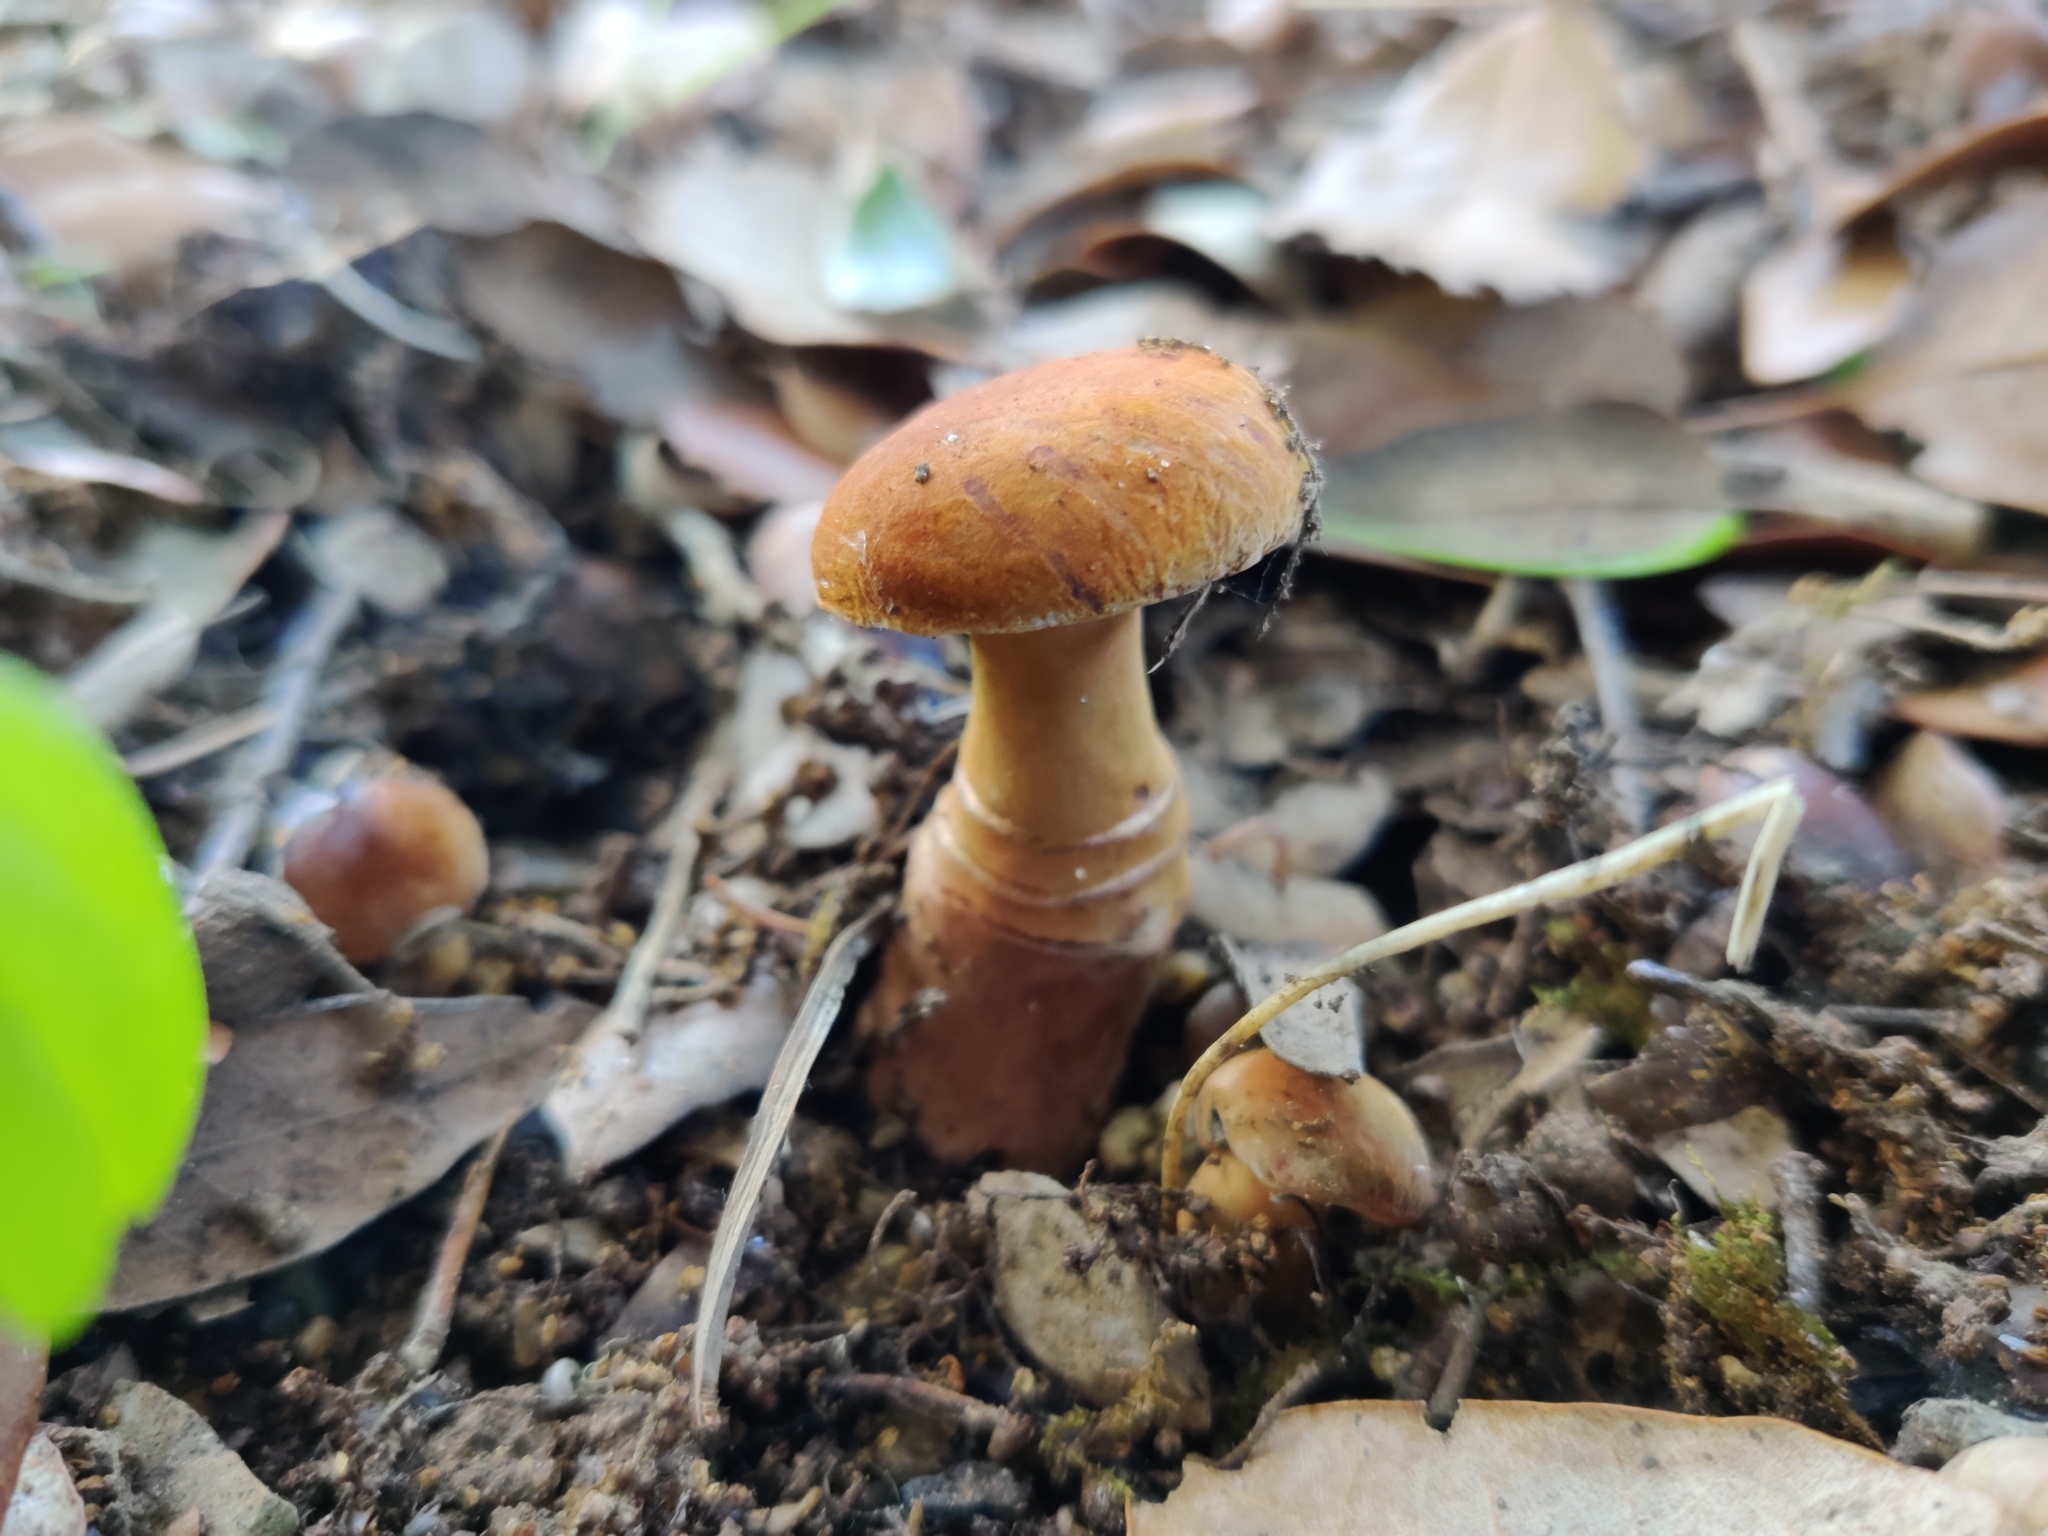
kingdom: Fungi
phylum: Basidiomycota
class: Agaricomycetes
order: Boletales
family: Gyroporaceae
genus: Gyroporus
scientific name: Gyroporus castaneus
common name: Chestnut bolete
